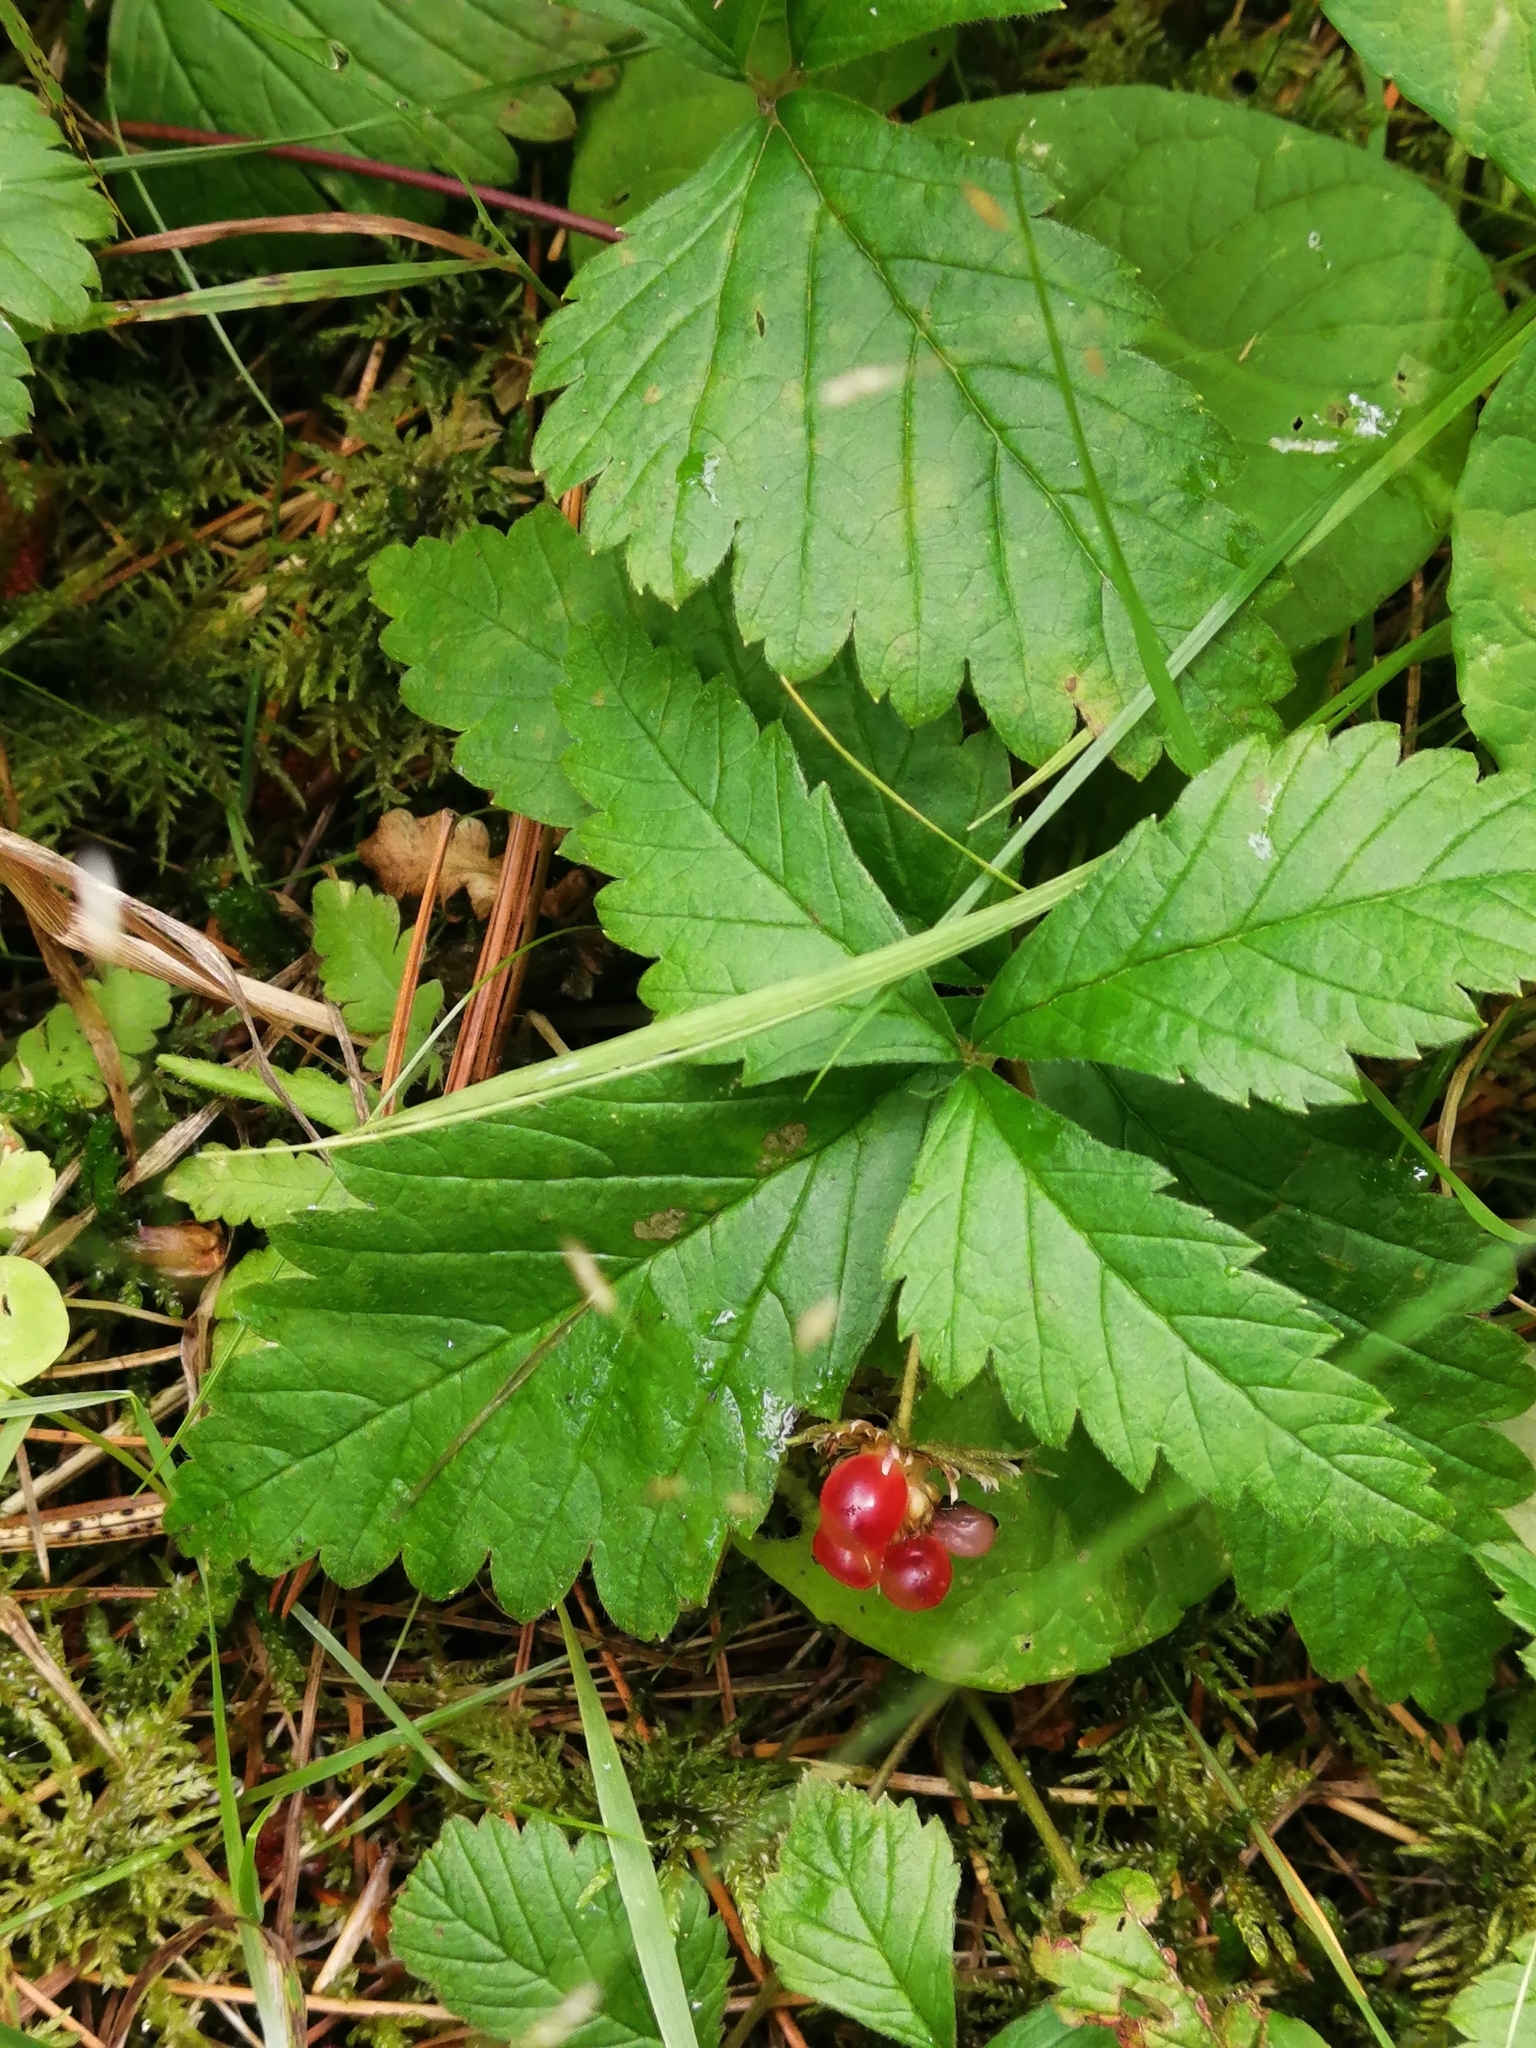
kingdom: Plantae
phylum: Tracheophyta
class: Magnoliopsida
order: Rosales
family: Rosaceae
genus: Rubus
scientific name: Rubus arcticus
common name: Arctic bramble
